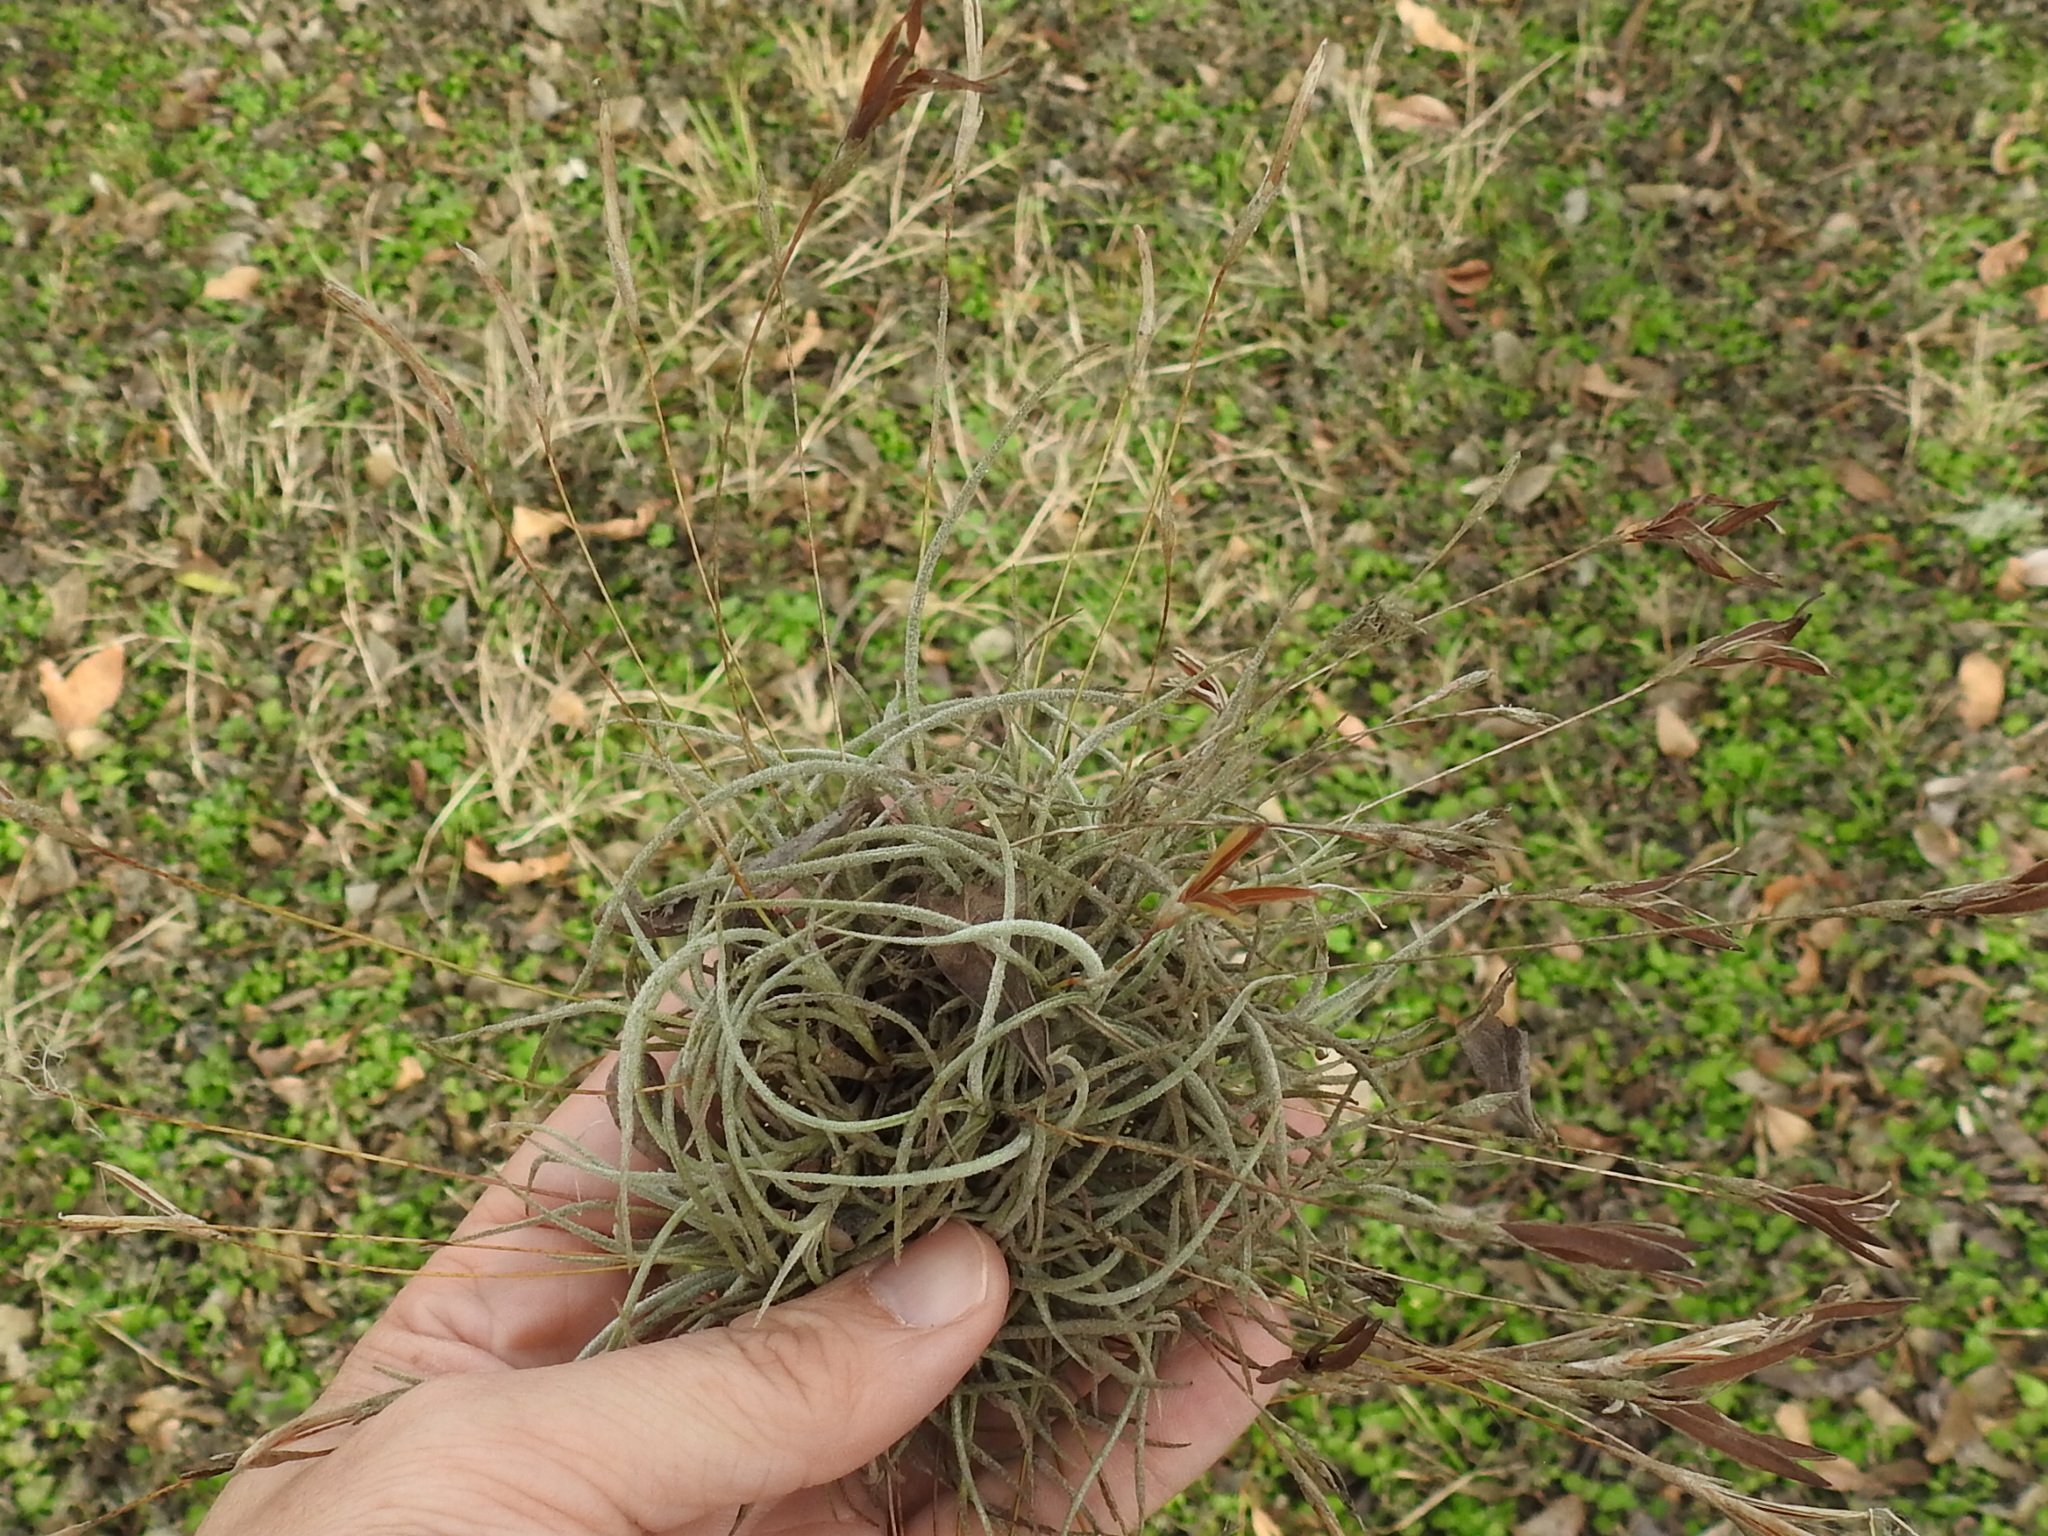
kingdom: Plantae
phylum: Tracheophyta
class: Liliopsida
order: Poales
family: Bromeliaceae
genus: Tillandsia
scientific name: Tillandsia recurvata
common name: Small ballmoss
